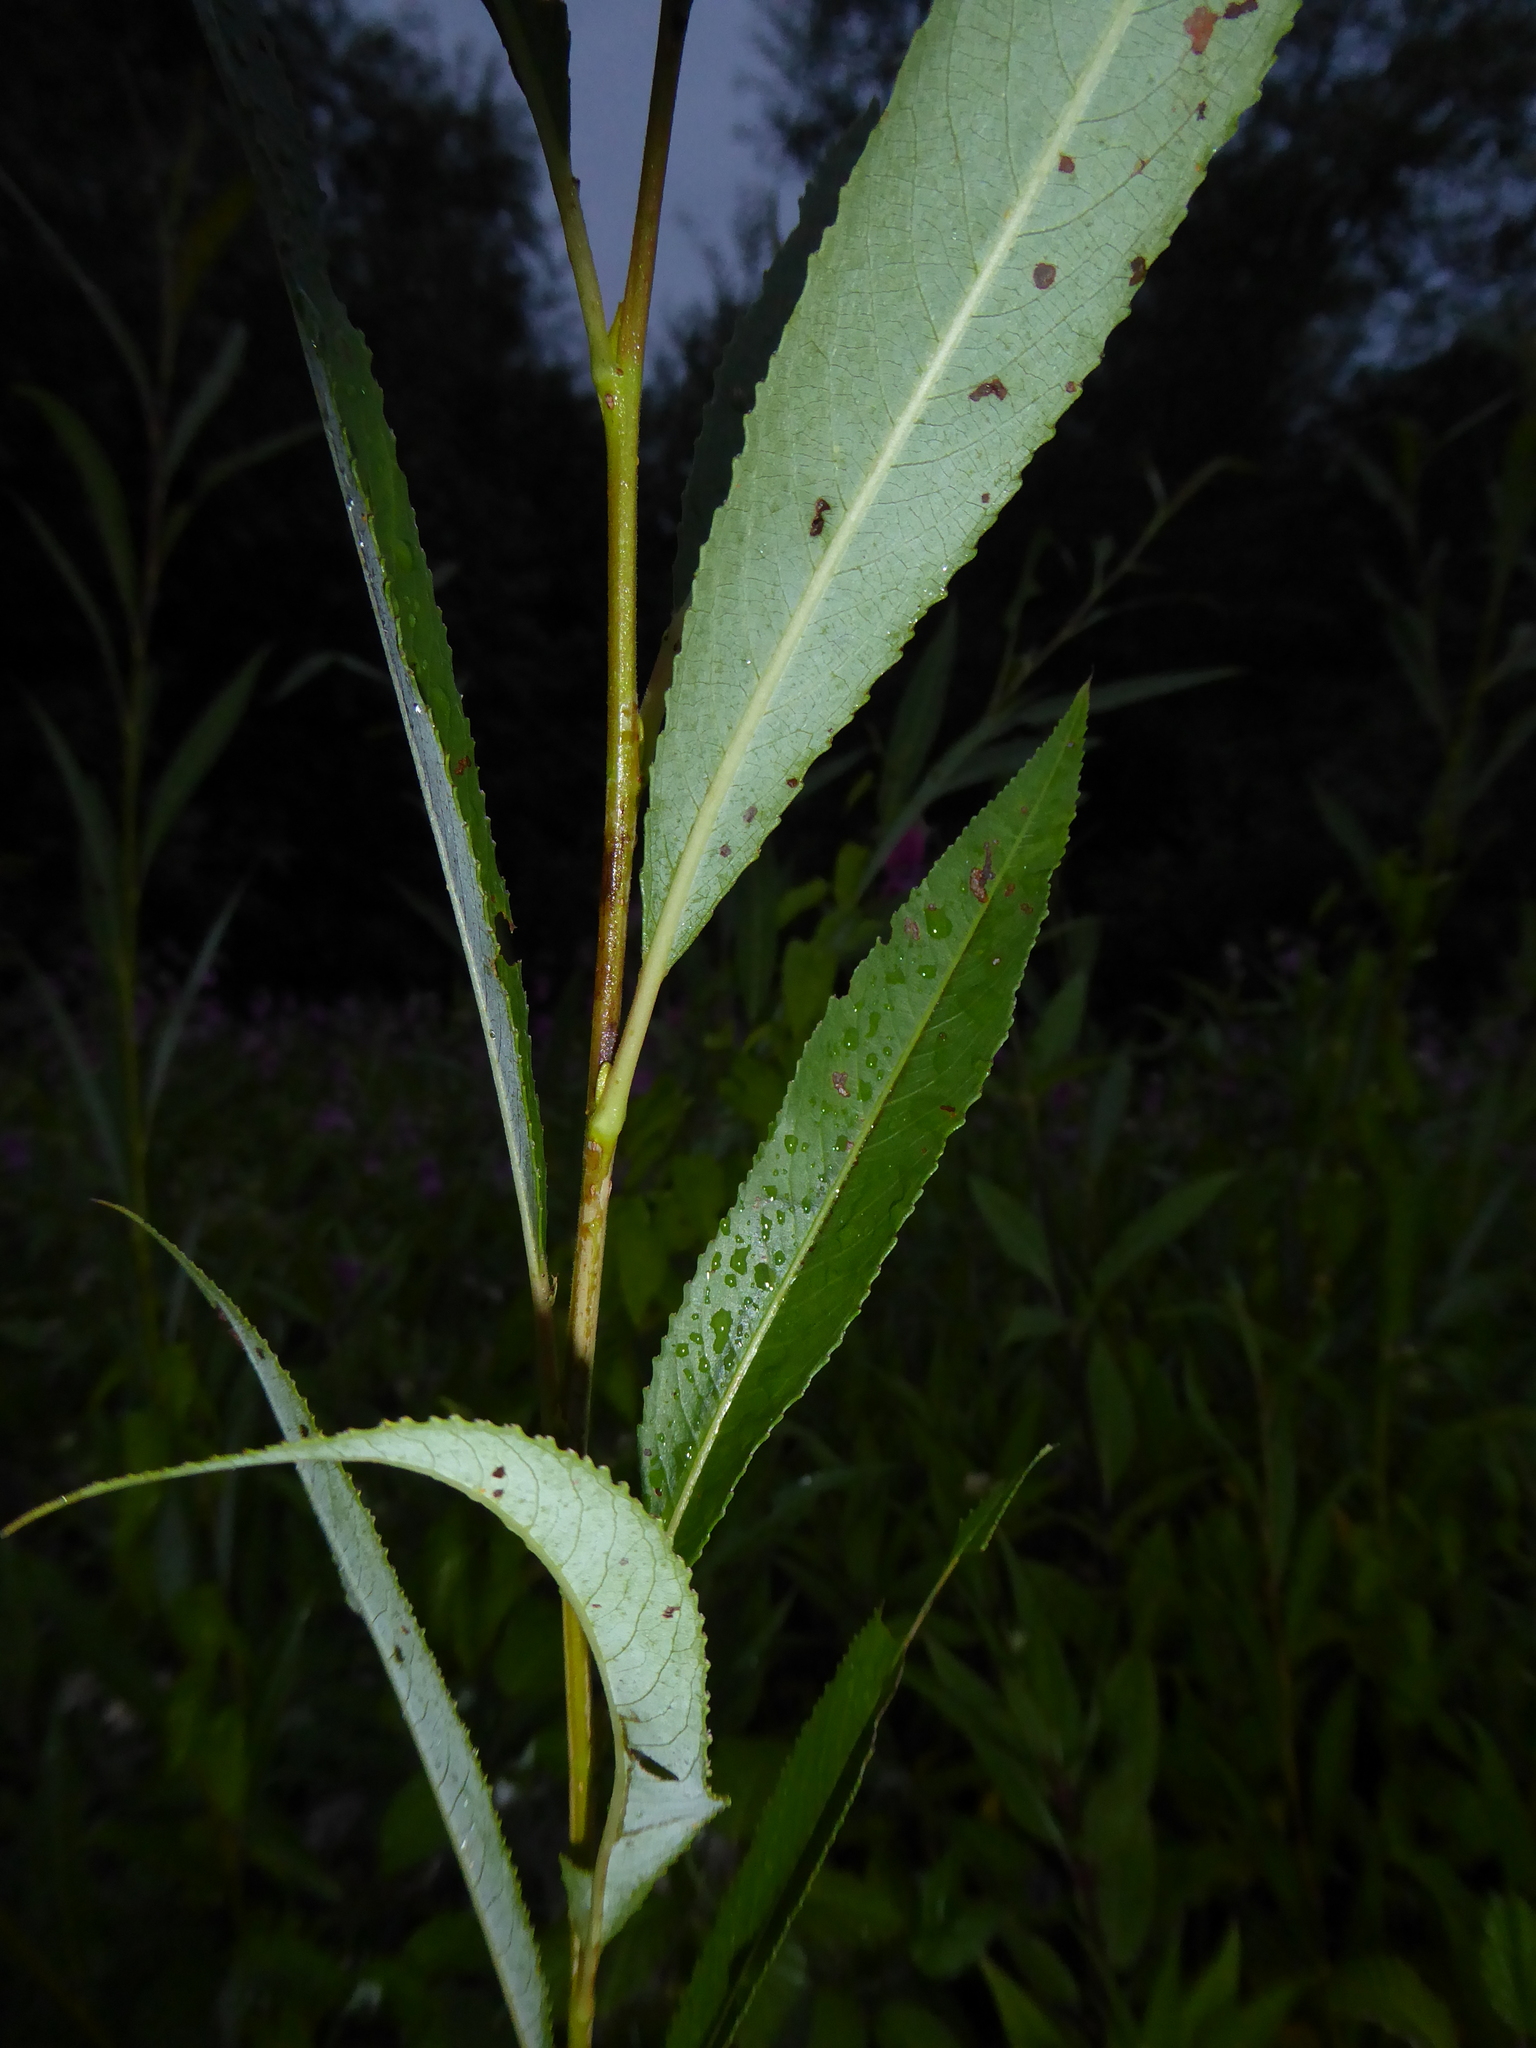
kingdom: Plantae
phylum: Tracheophyta
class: Magnoliopsida
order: Malpighiales
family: Salicaceae
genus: Salix
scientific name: Salix fragilis
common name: Crack willow
